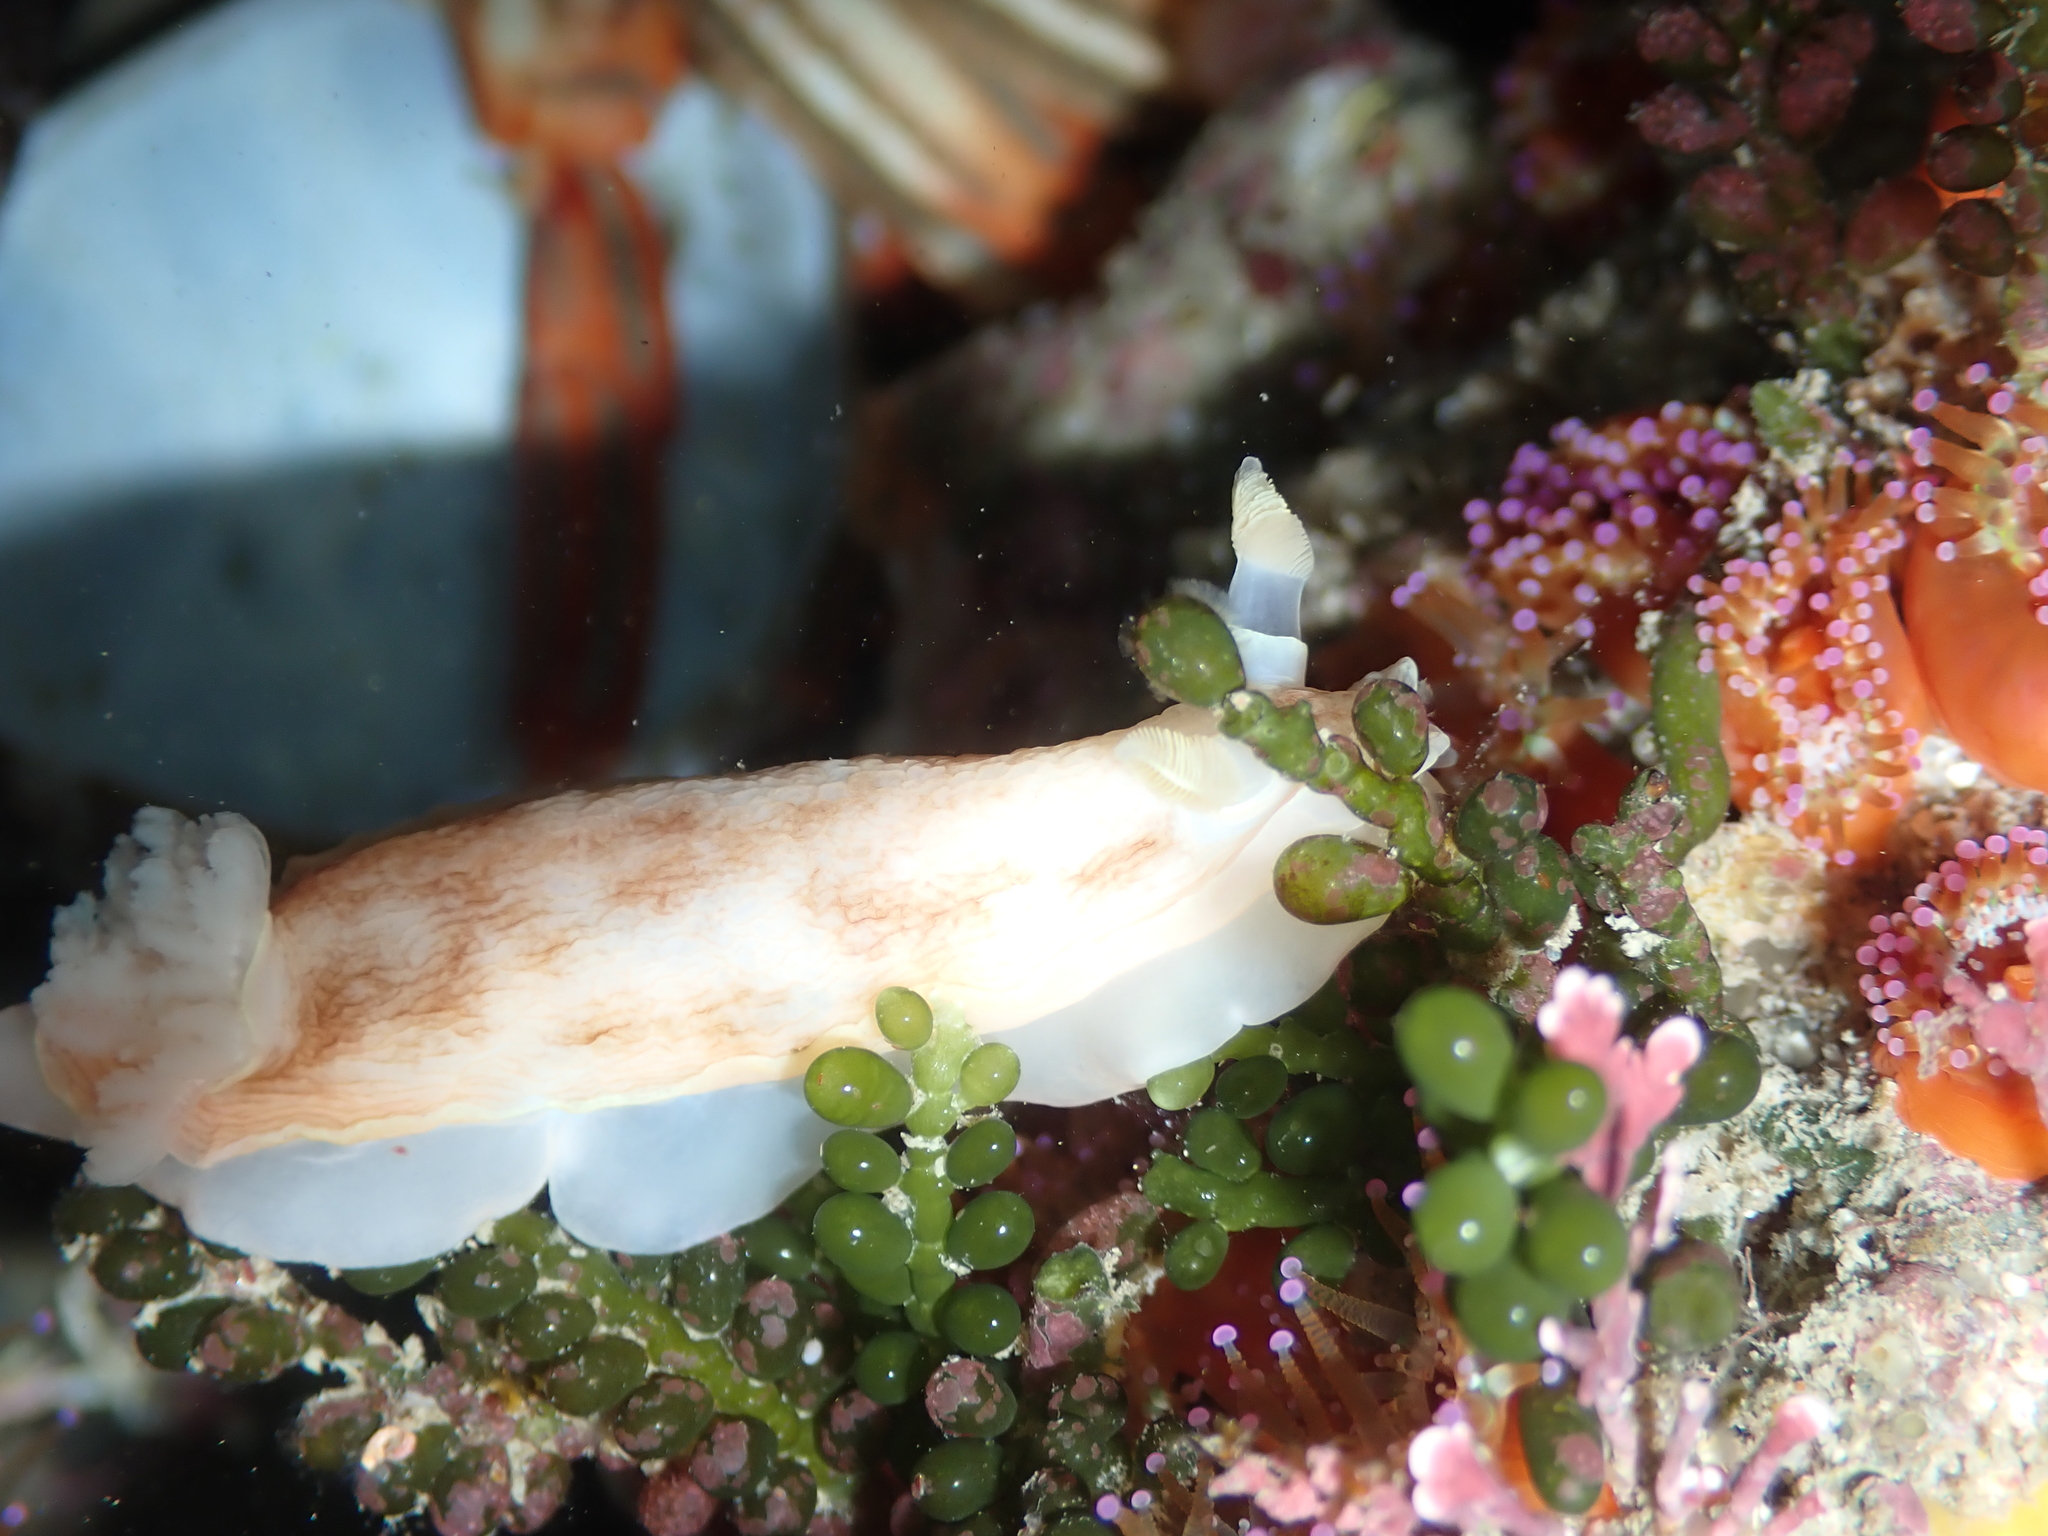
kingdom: Animalia
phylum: Mollusca
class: Gastropoda
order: Nudibranchia
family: Dorididae
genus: Aphelodoris
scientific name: Aphelodoris luctuosa
